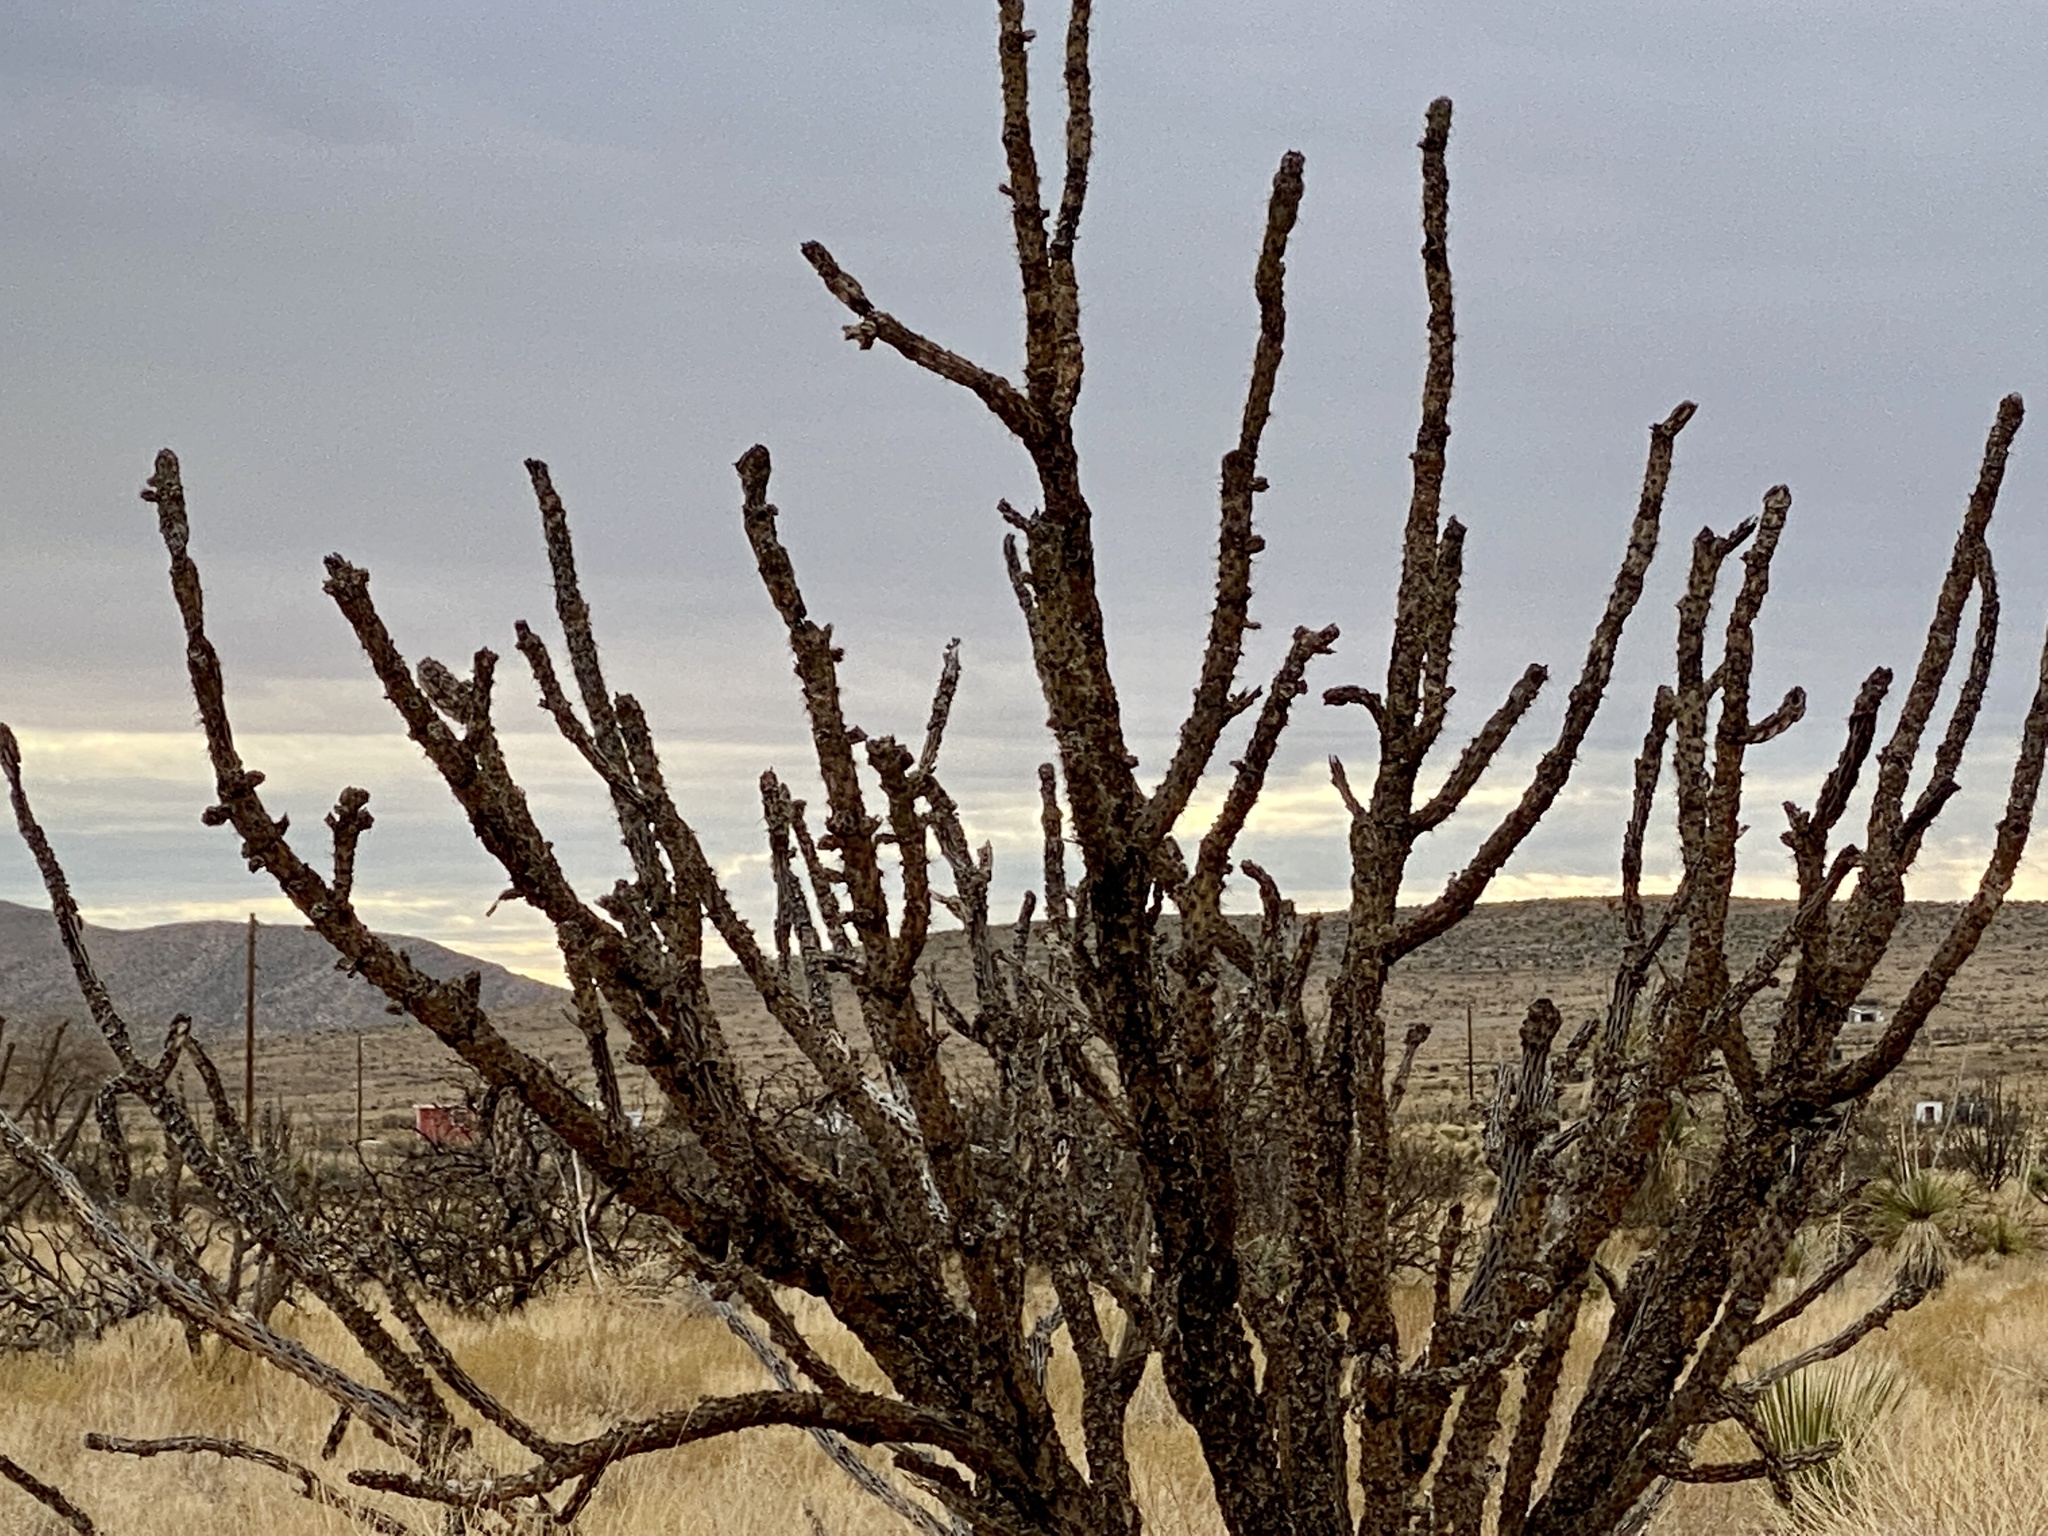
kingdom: Plantae
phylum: Tracheophyta
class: Magnoliopsida
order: Caryophyllales
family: Cactaceae
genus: Cylindropuntia
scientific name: Cylindropuntia imbricata
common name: Candelabrum cactus
